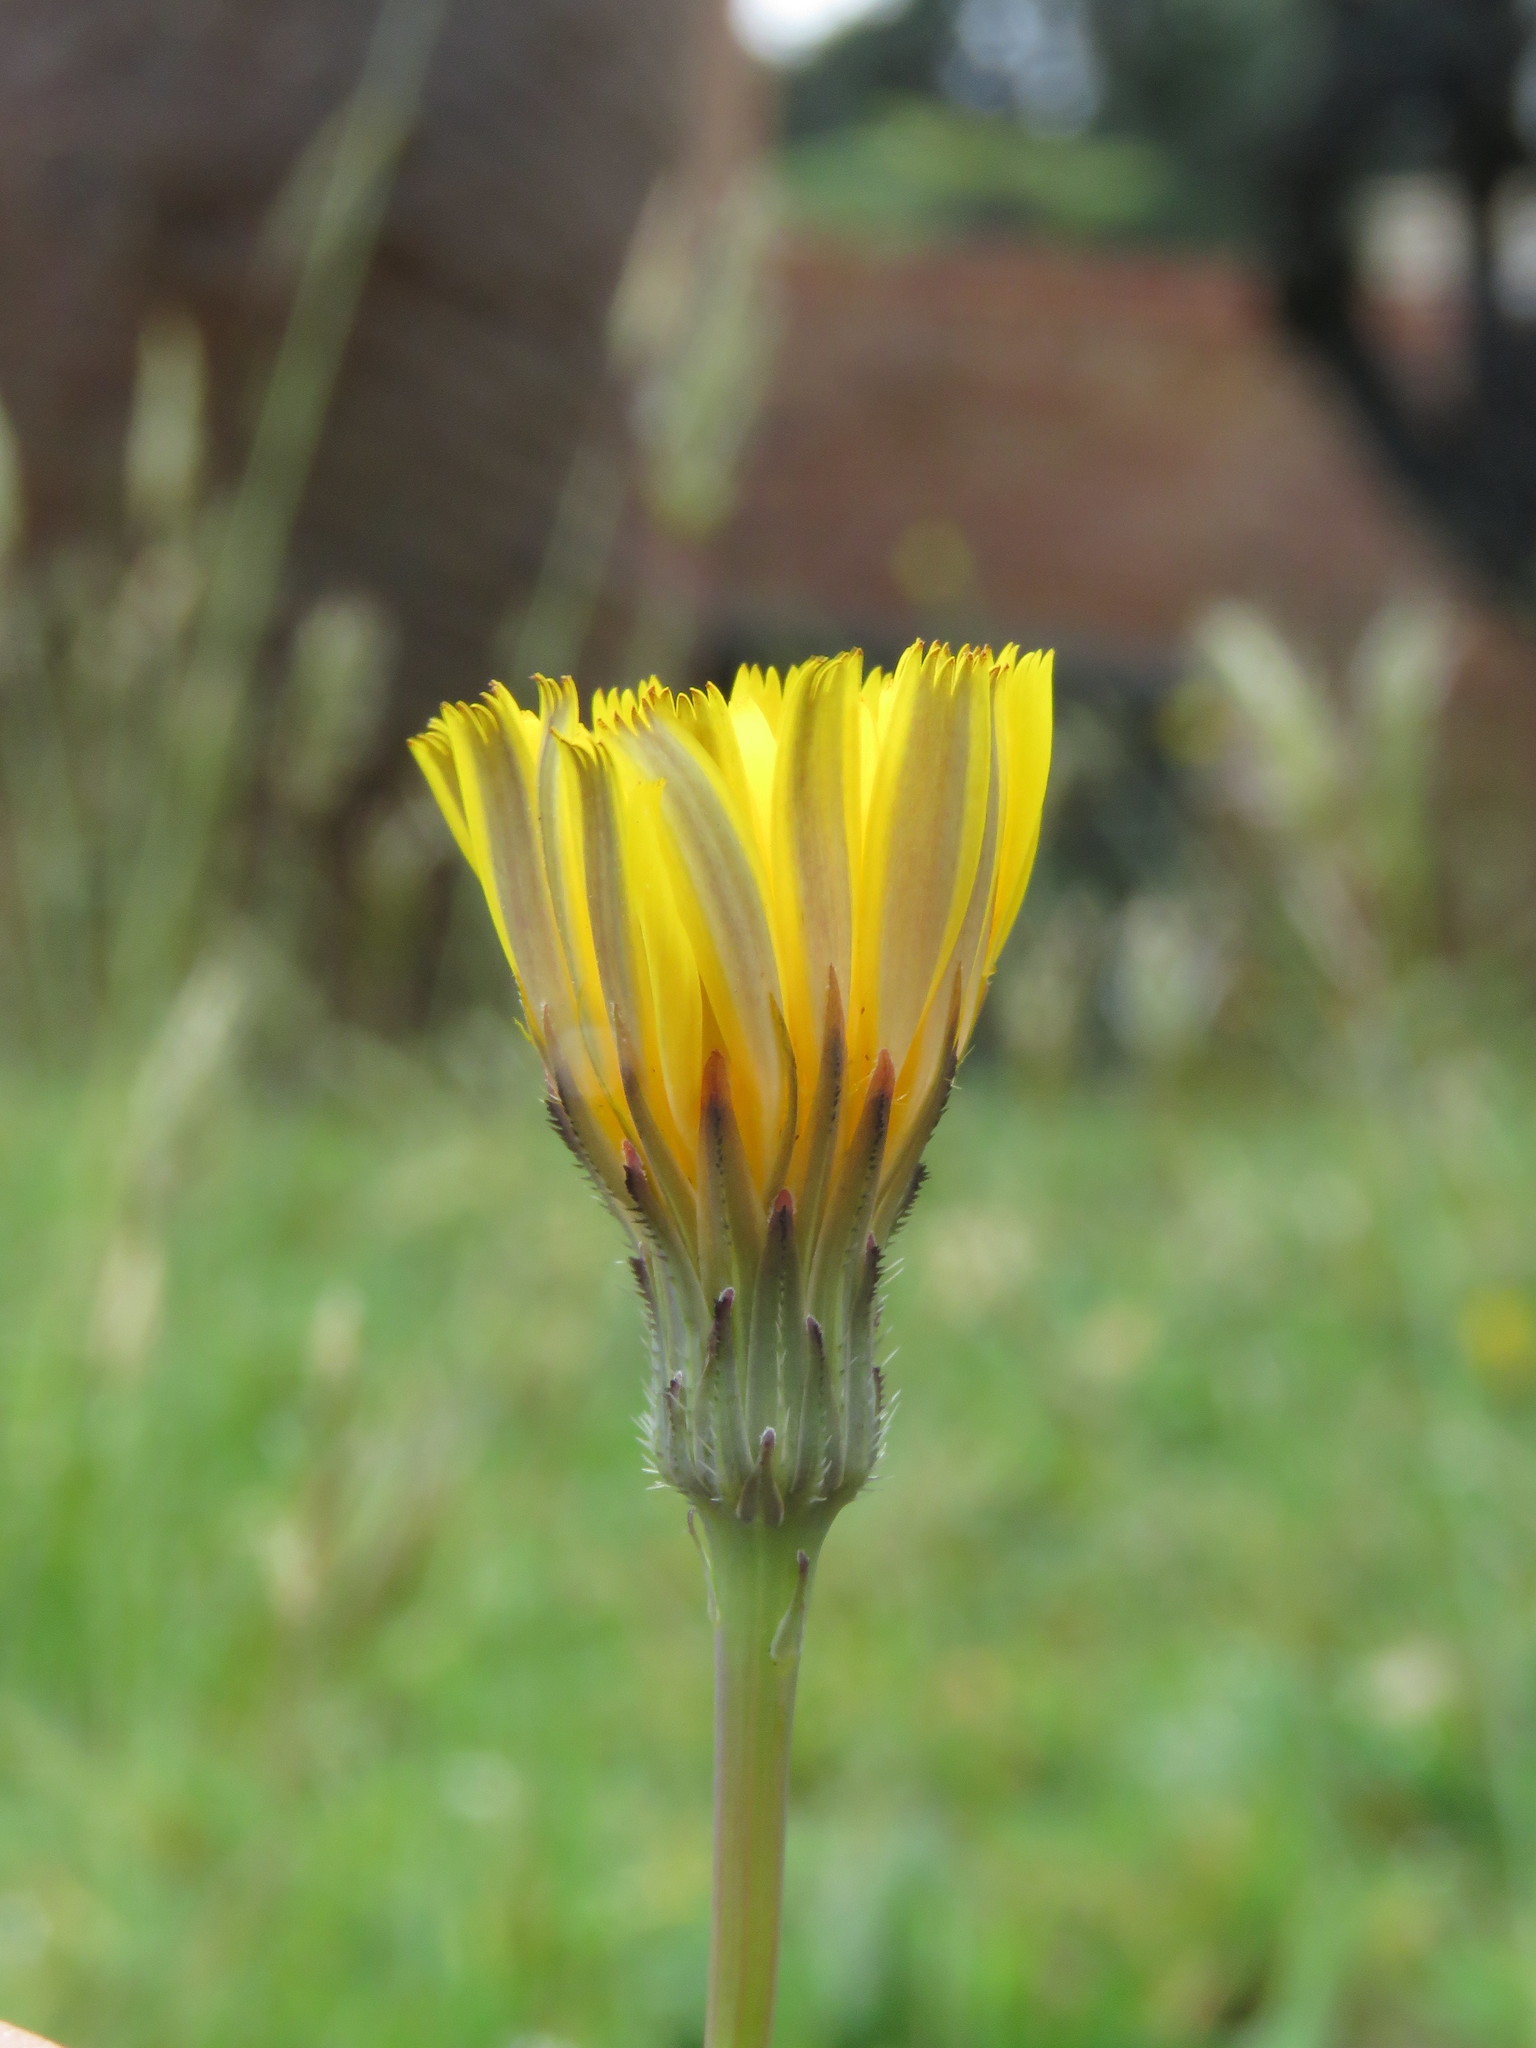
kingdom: Plantae
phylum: Tracheophyta
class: Magnoliopsida
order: Asterales
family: Asteraceae
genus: Hypochaeris
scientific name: Hypochaeris radicata
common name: Flatweed
